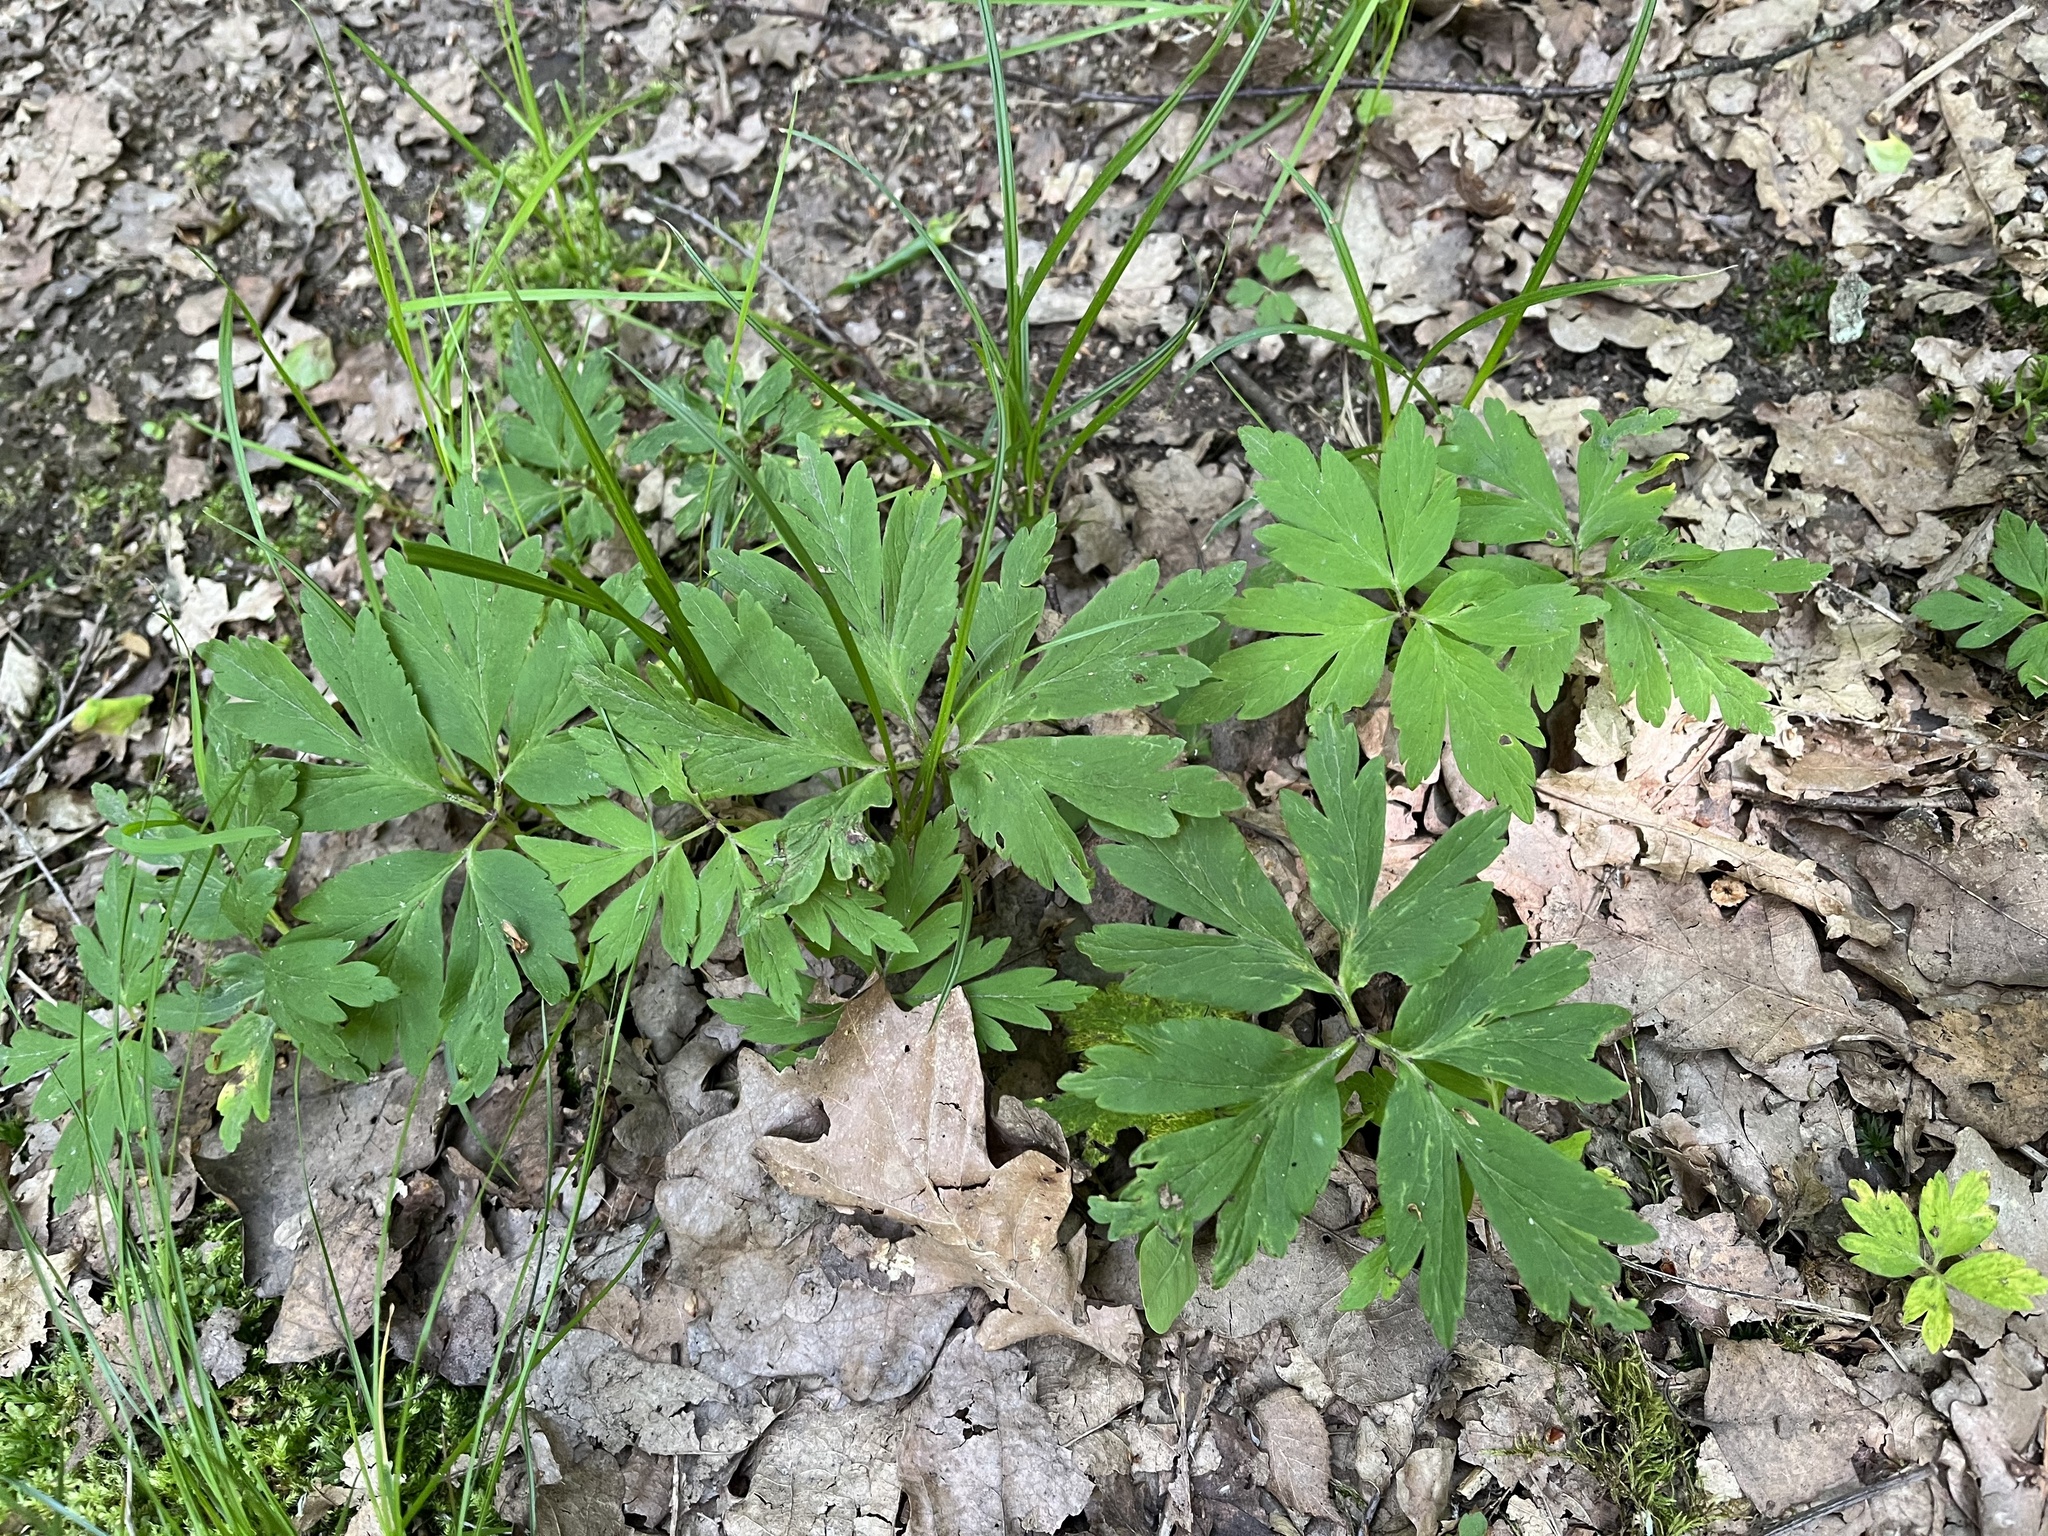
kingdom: Plantae
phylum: Tracheophyta
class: Magnoliopsida
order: Ranunculales
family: Ranunculaceae
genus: Anemone
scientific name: Anemone nemorosa
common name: Wood anemone
